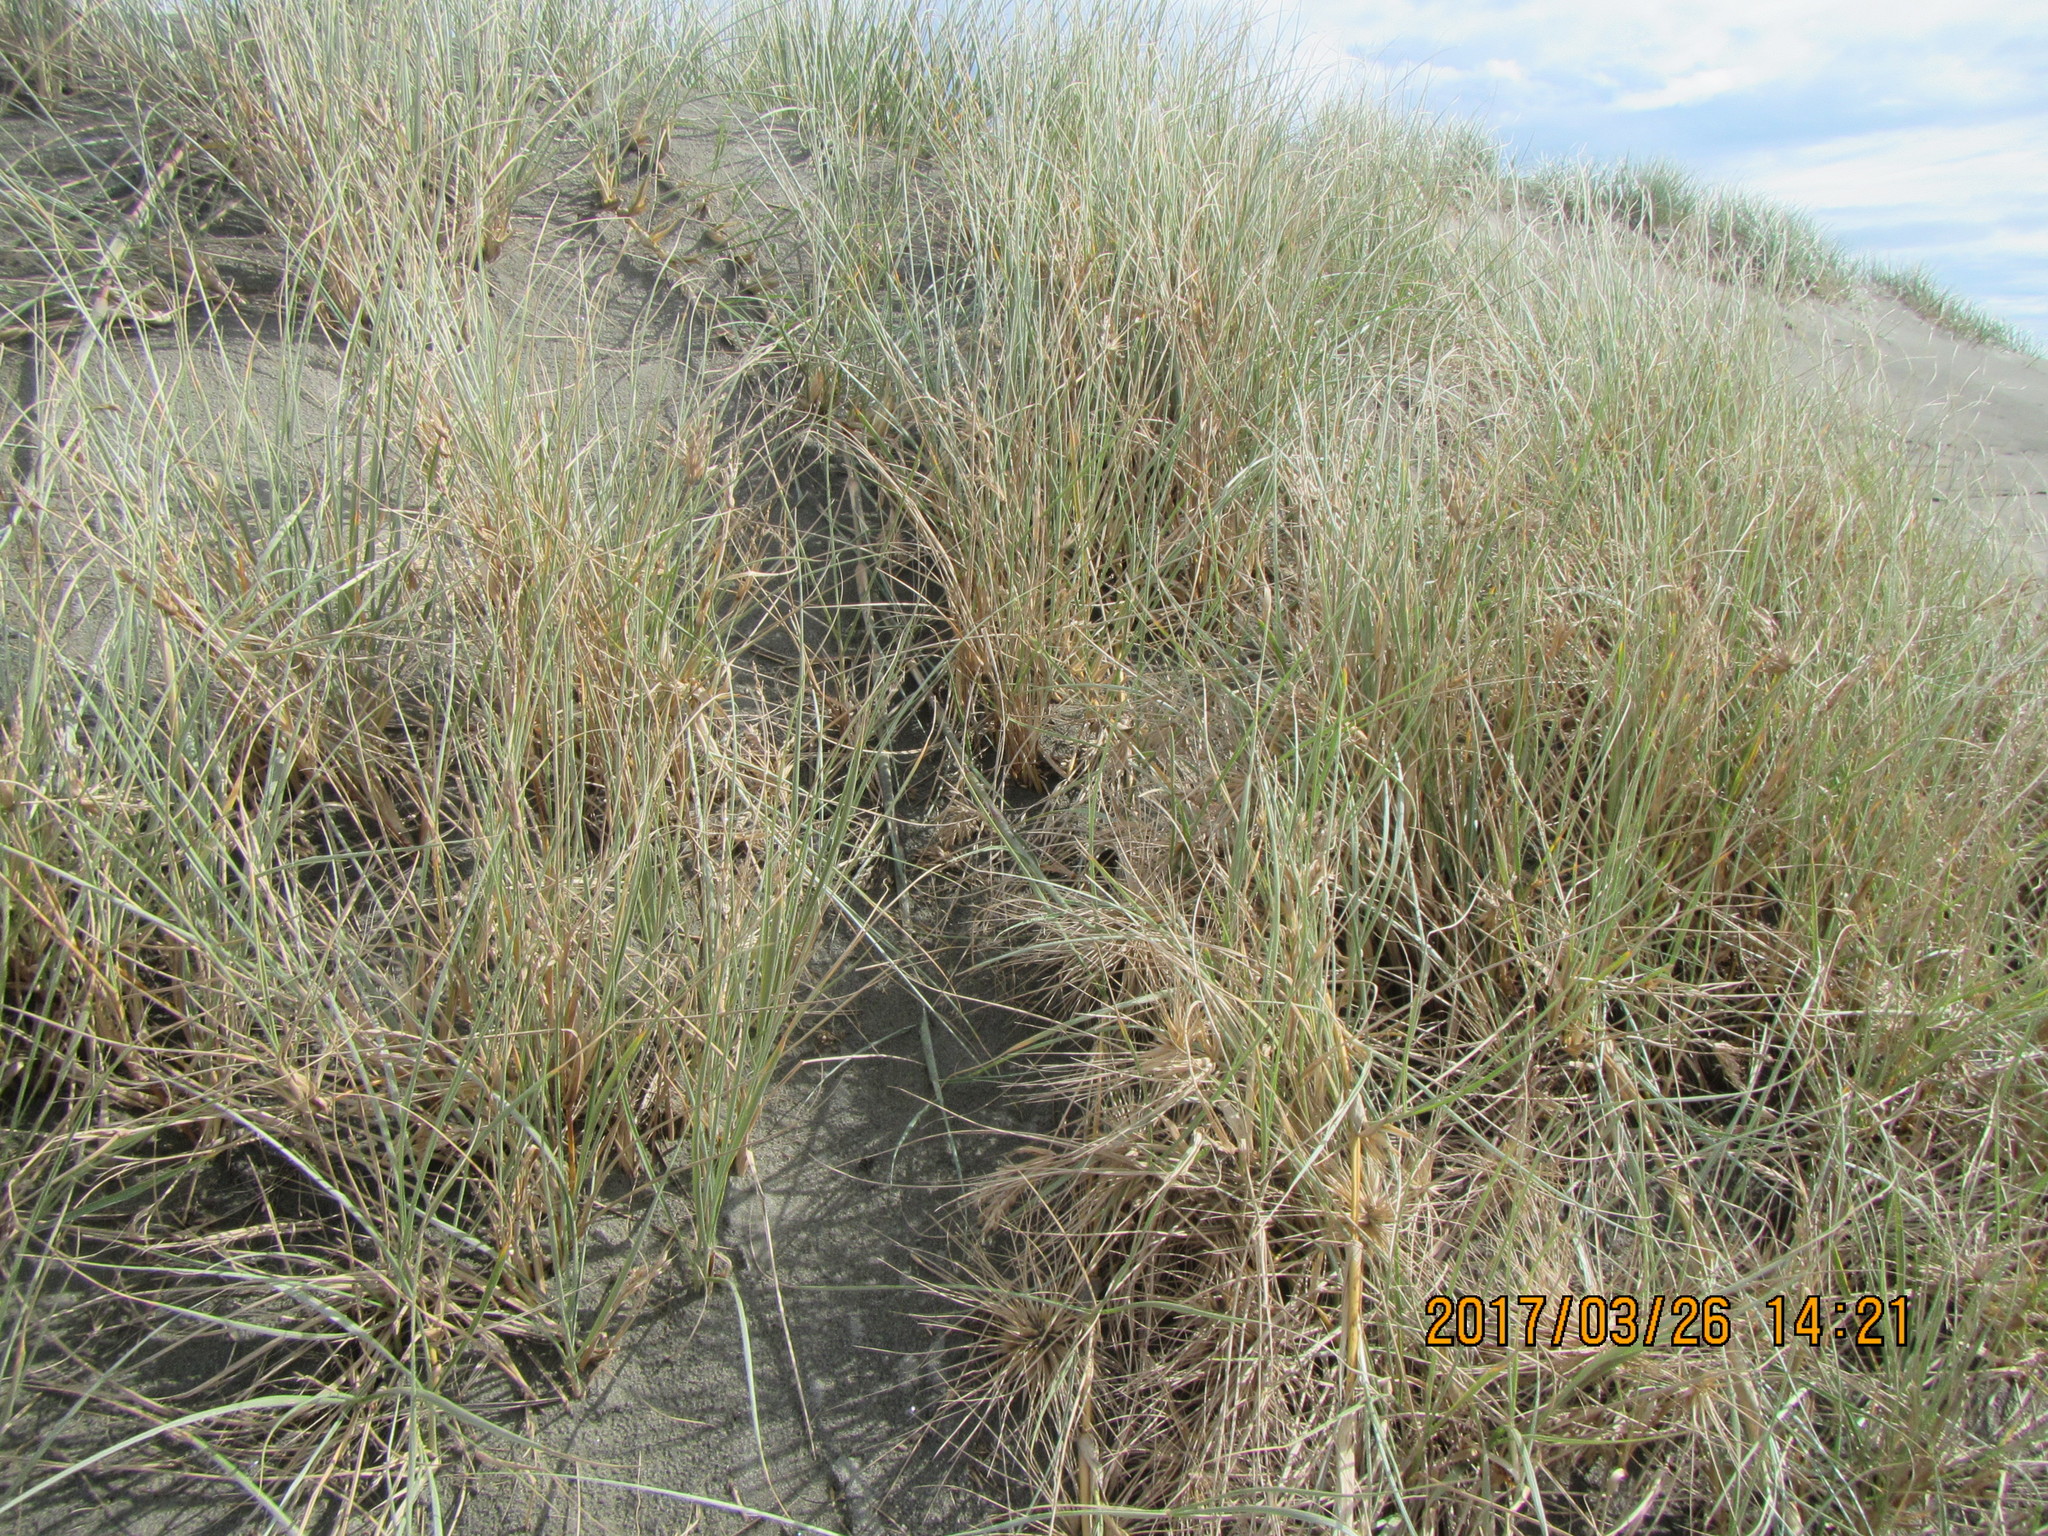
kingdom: Plantae
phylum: Tracheophyta
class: Liliopsida
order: Poales
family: Poaceae
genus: Spinifex
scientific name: Spinifex sericeus
